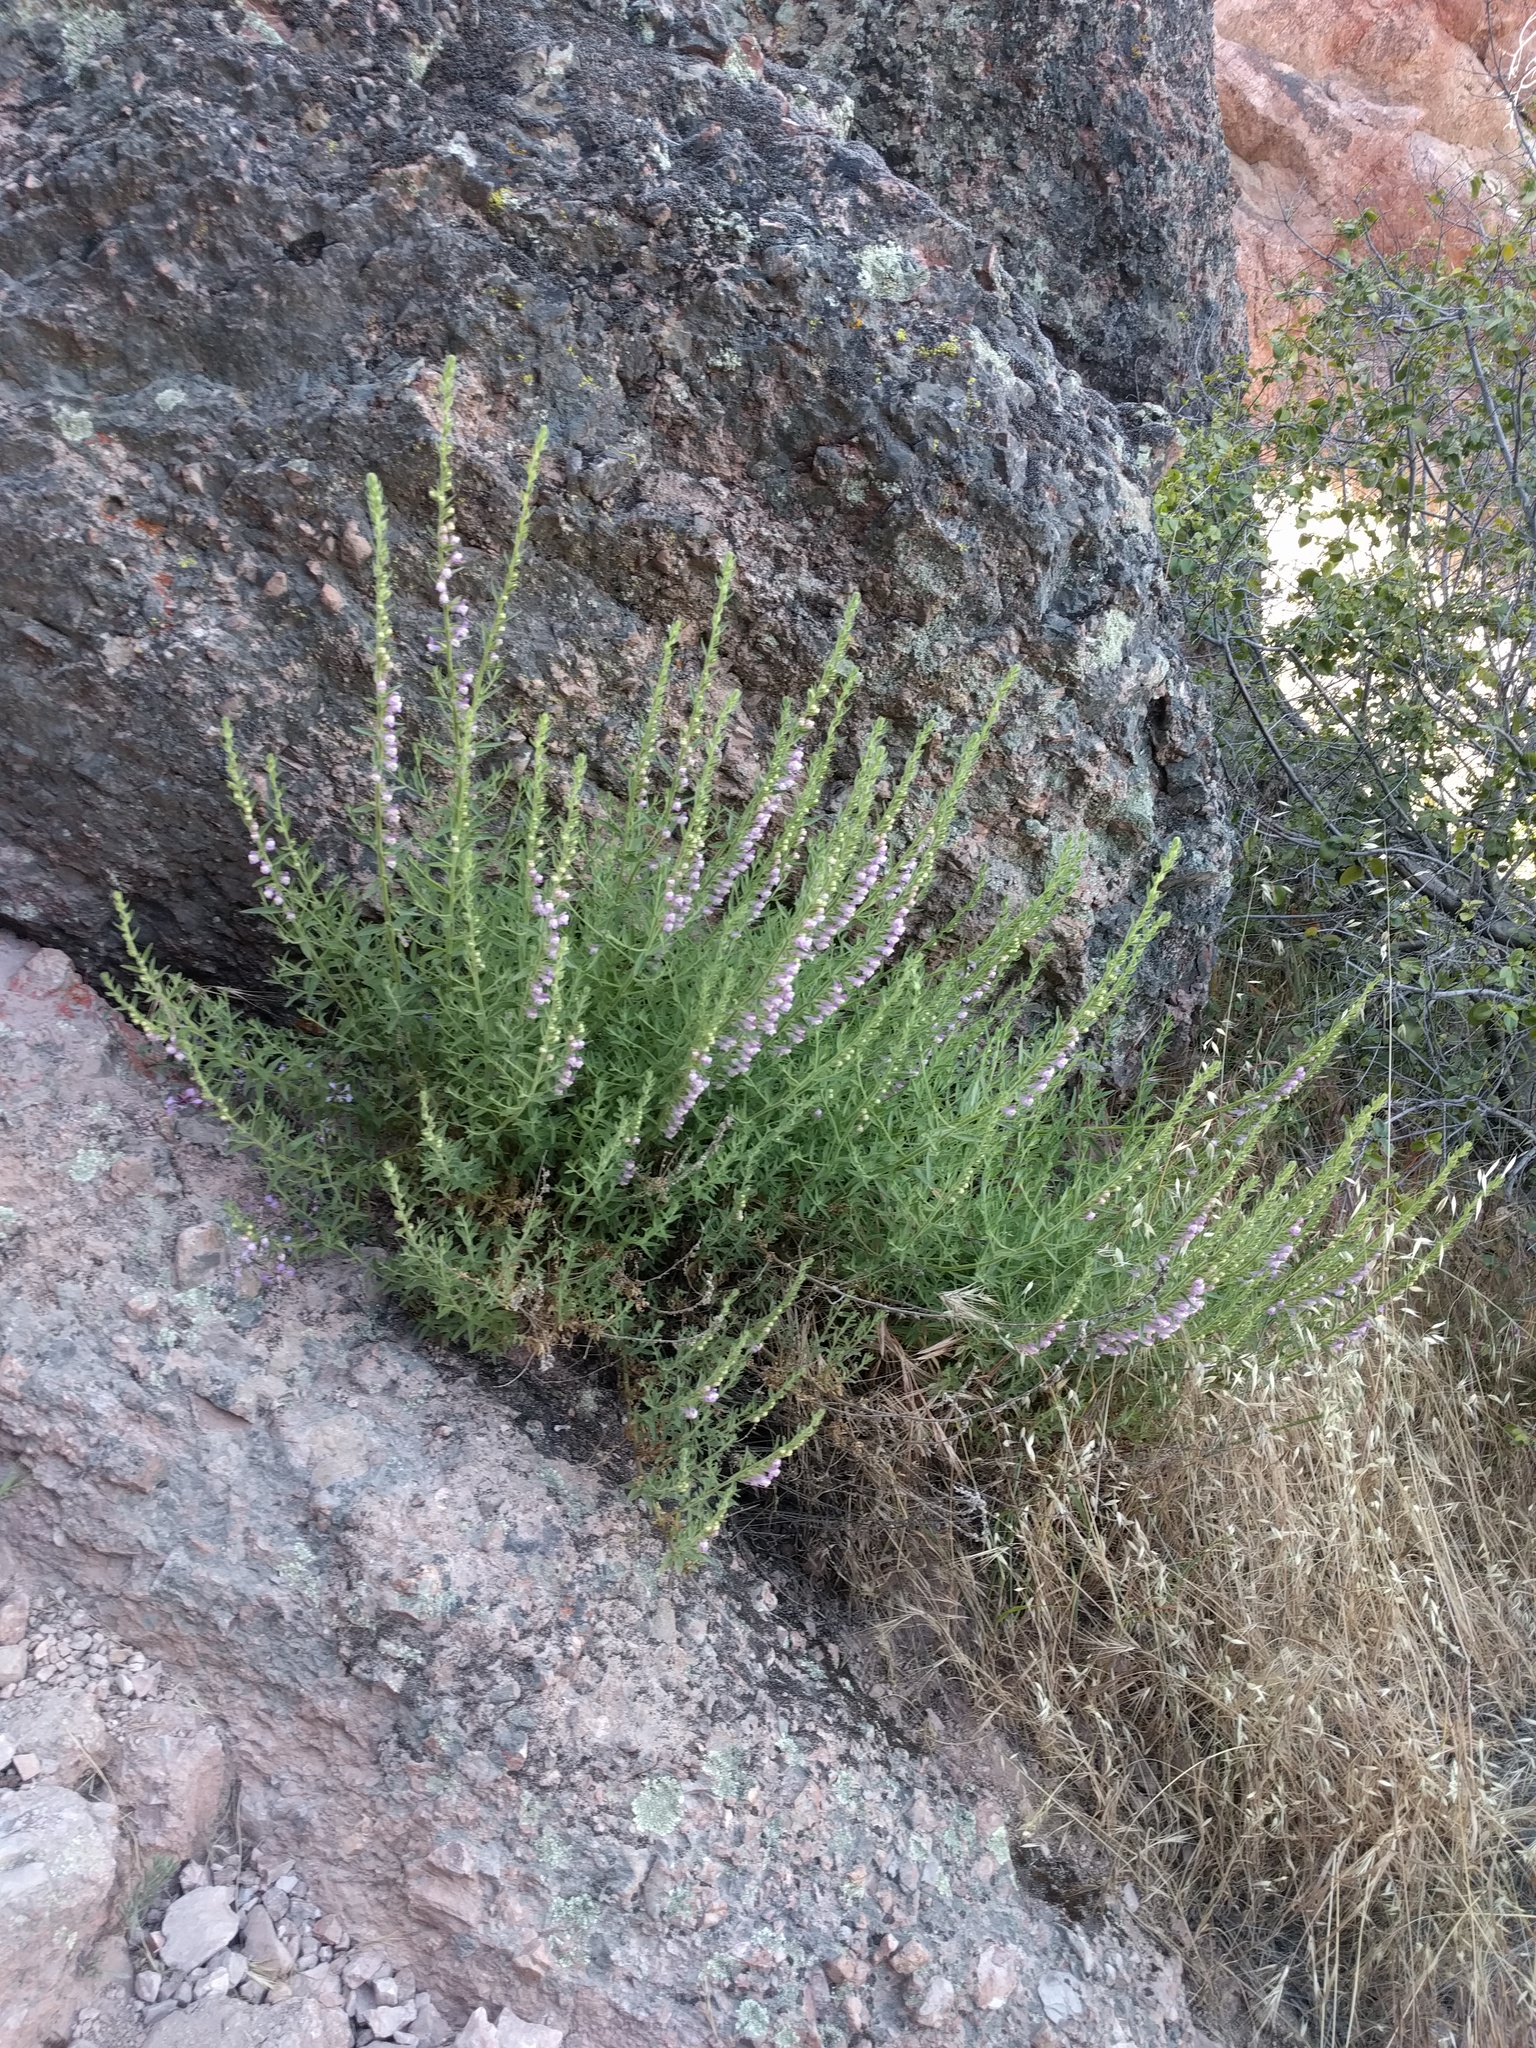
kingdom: Plantae
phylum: Tracheophyta
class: Magnoliopsida
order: Lamiales
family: Plantaginaceae
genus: Sairocarpus
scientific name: Sairocarpus multiflorus
